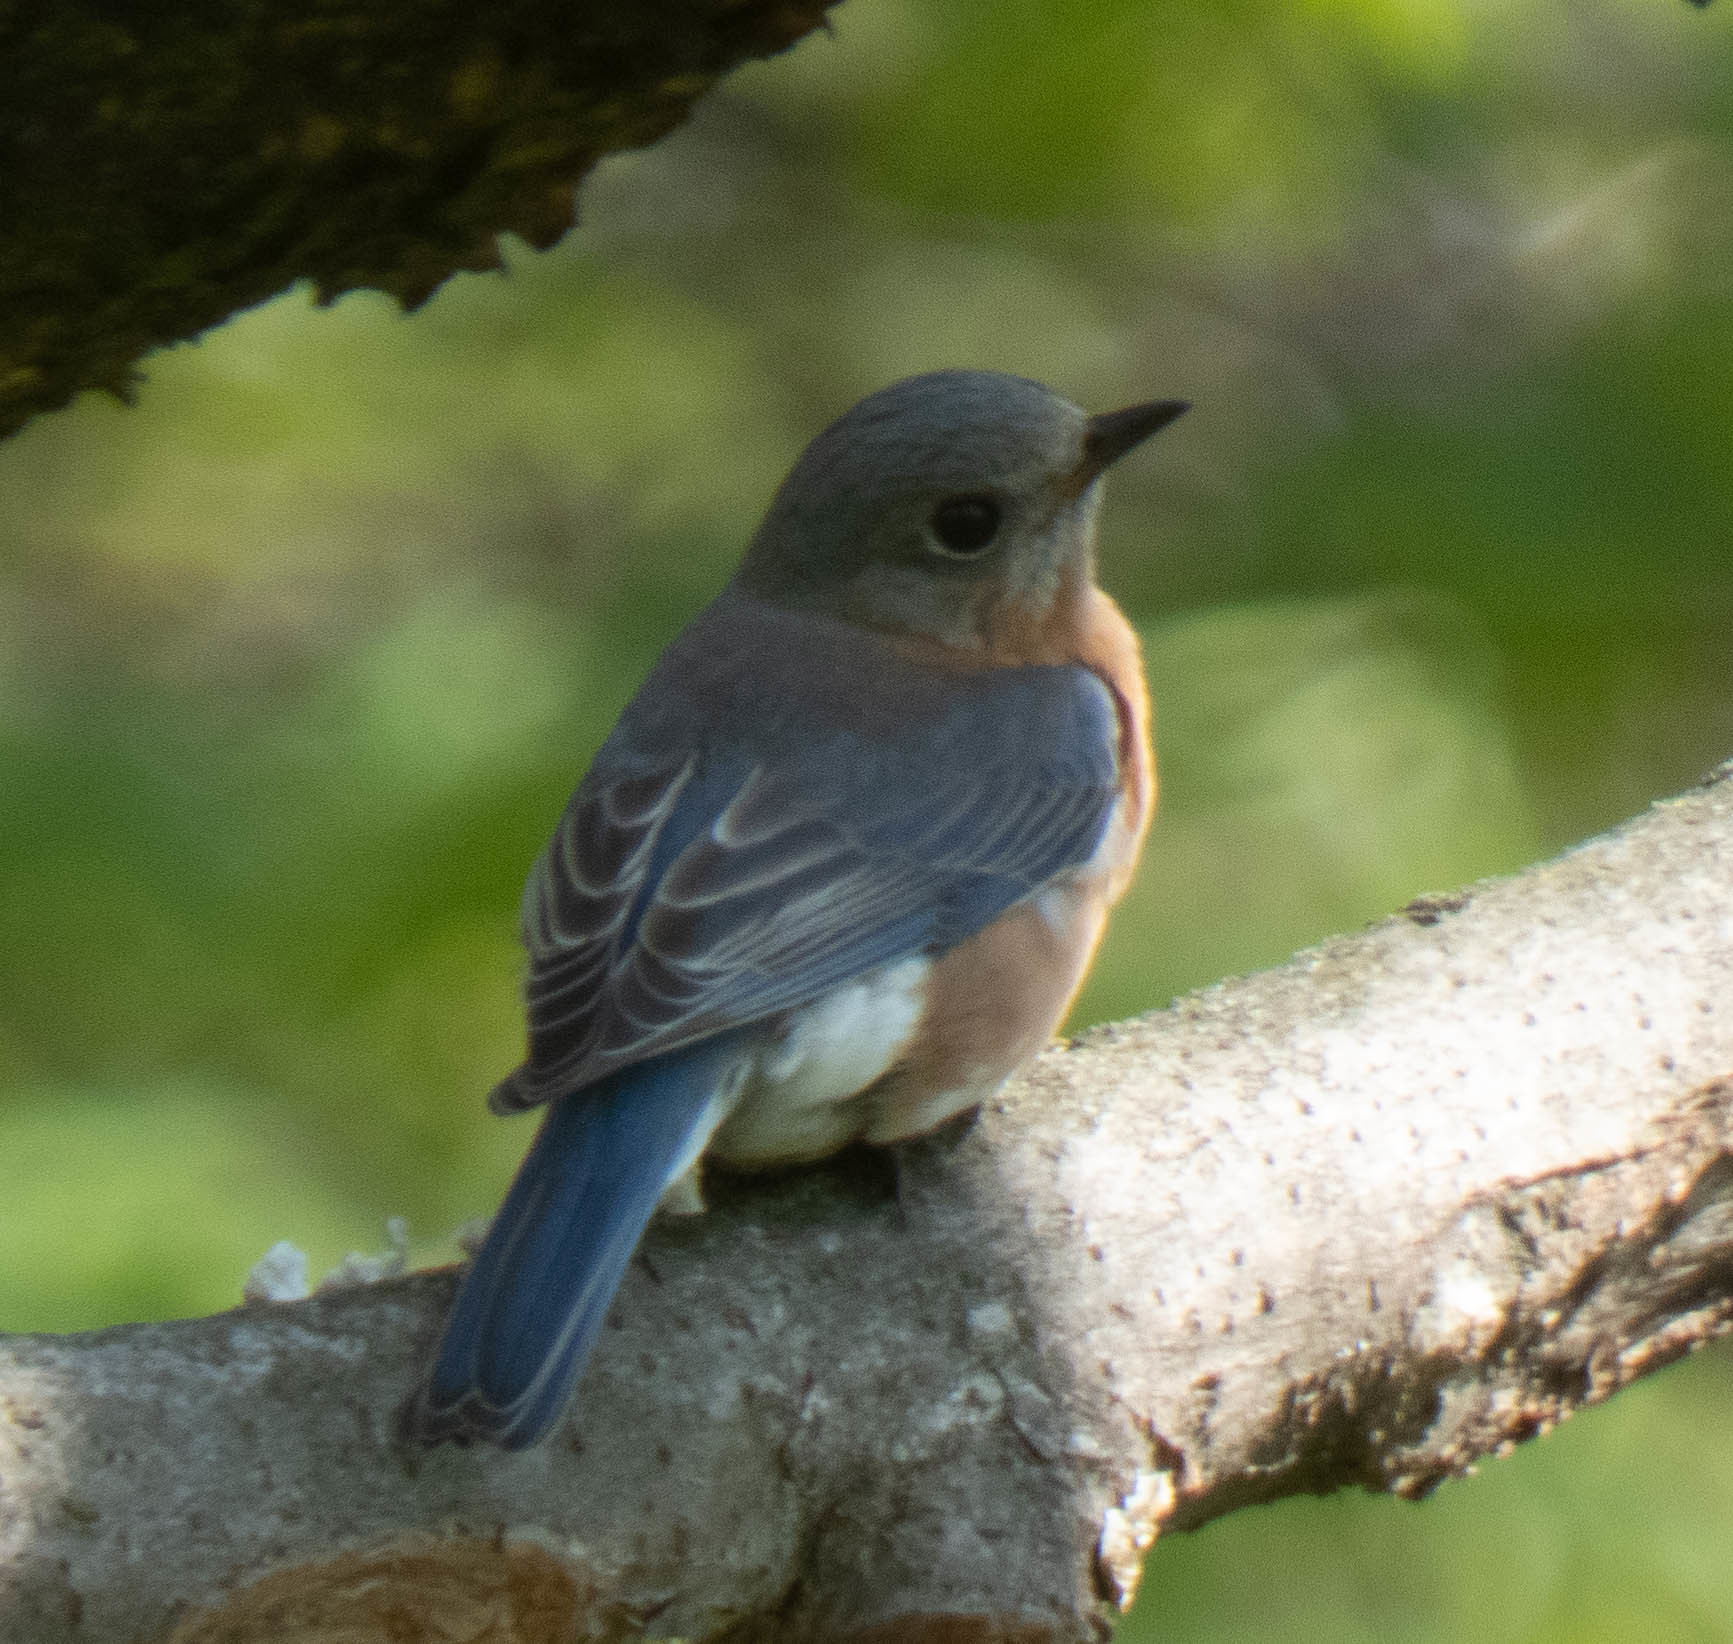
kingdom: Animalia
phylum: Chordata
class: Aves
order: Passeriformes
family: Turdidae
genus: Sialia
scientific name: Sialia sialis
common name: Eastern bluebird
